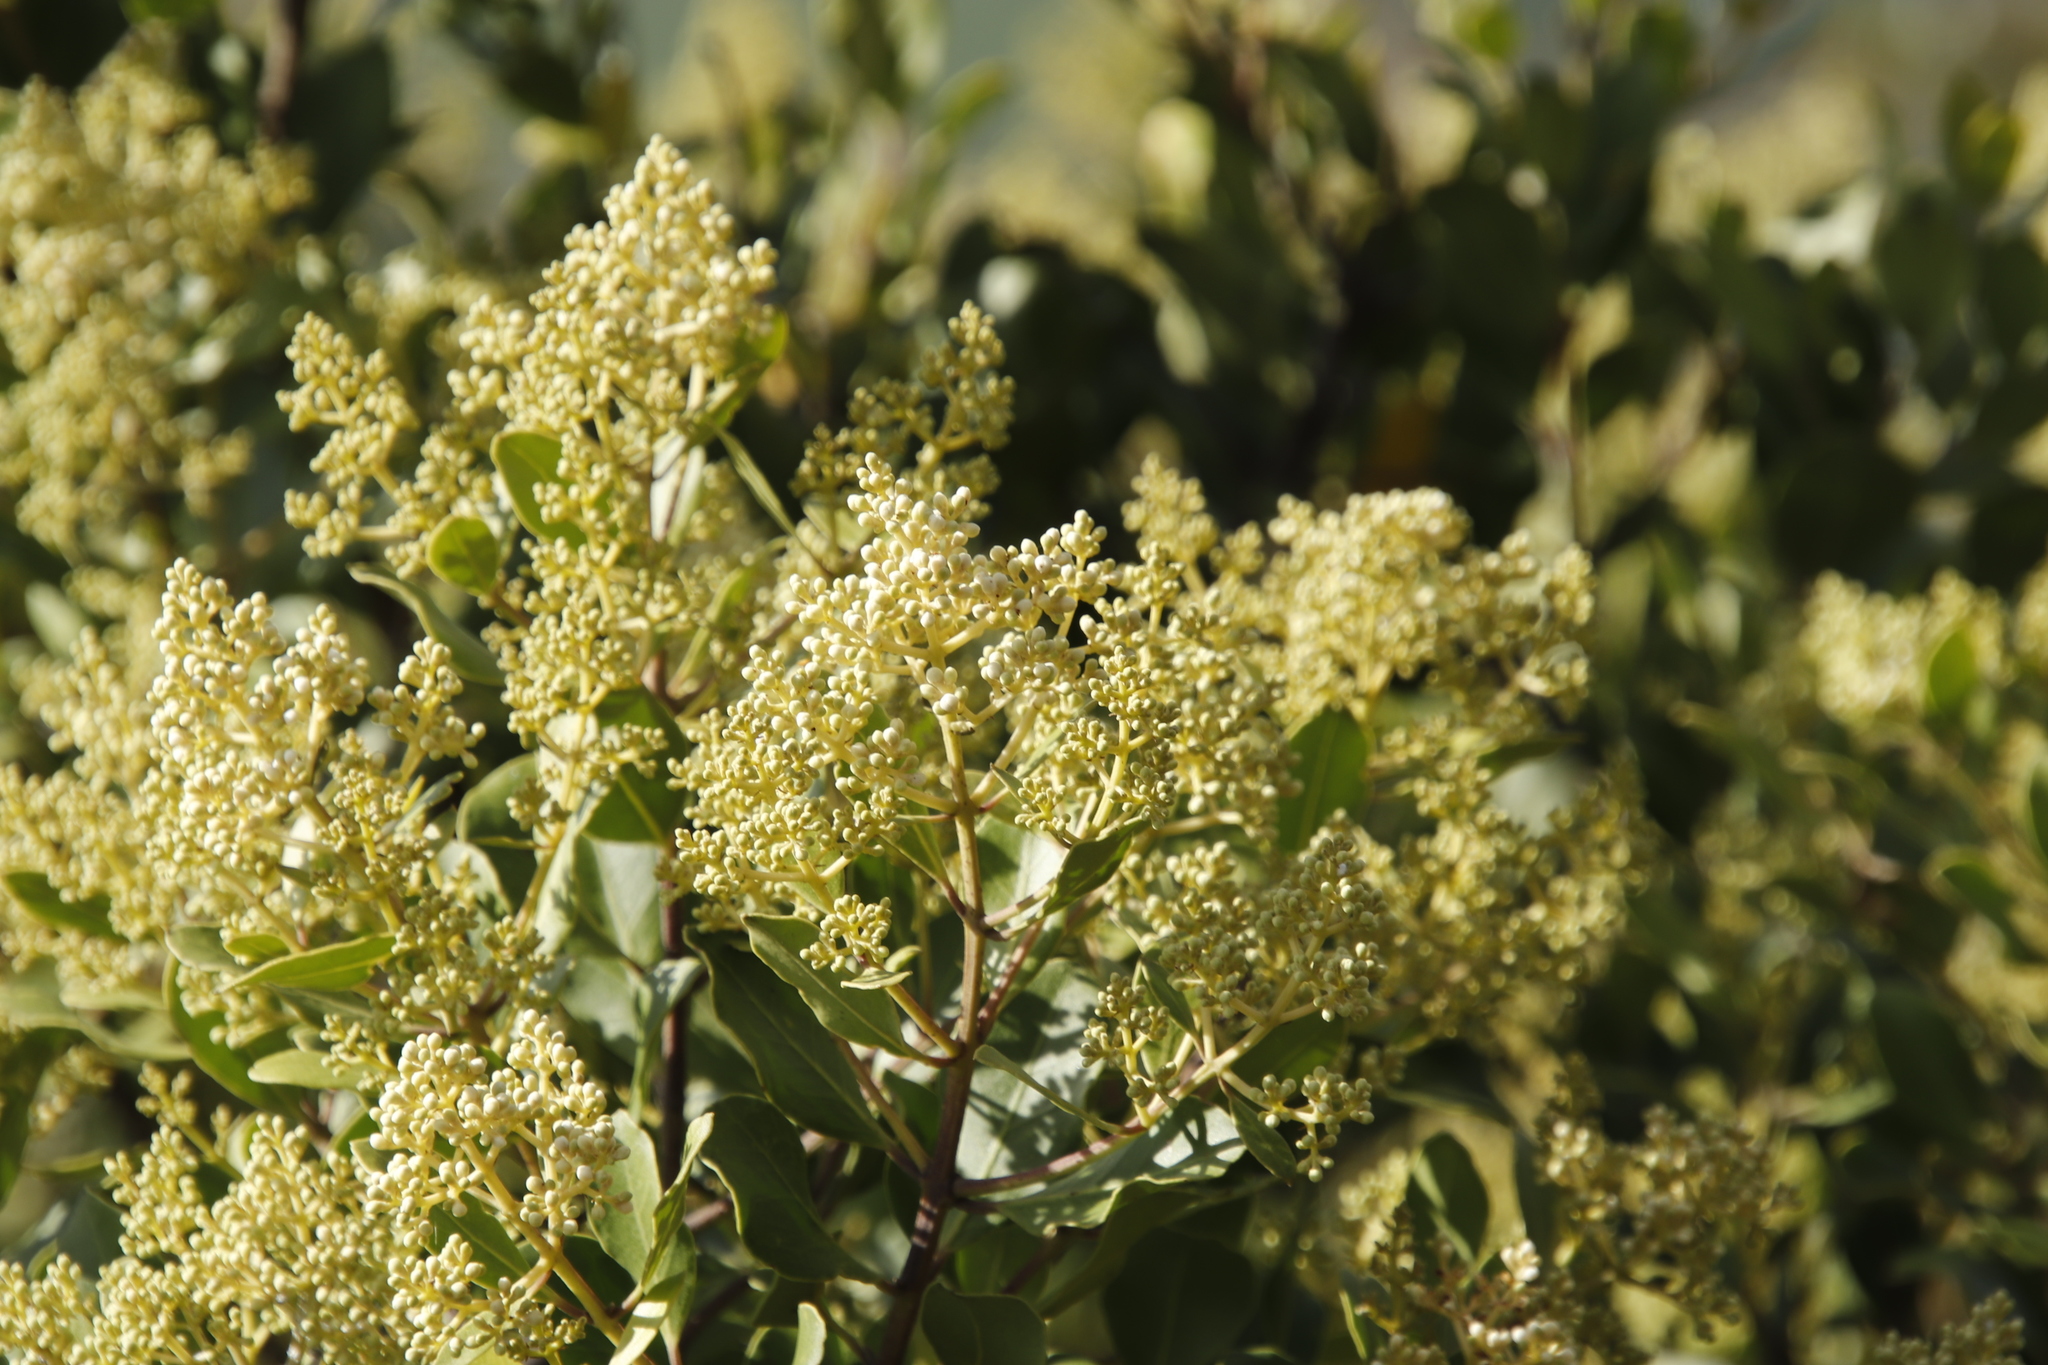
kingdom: Plantae
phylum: Tracheophyta
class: Magnoliopsida
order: Lamiales
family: Oleaceae
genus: Olea
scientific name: Olea capensis
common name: Black ironwood
